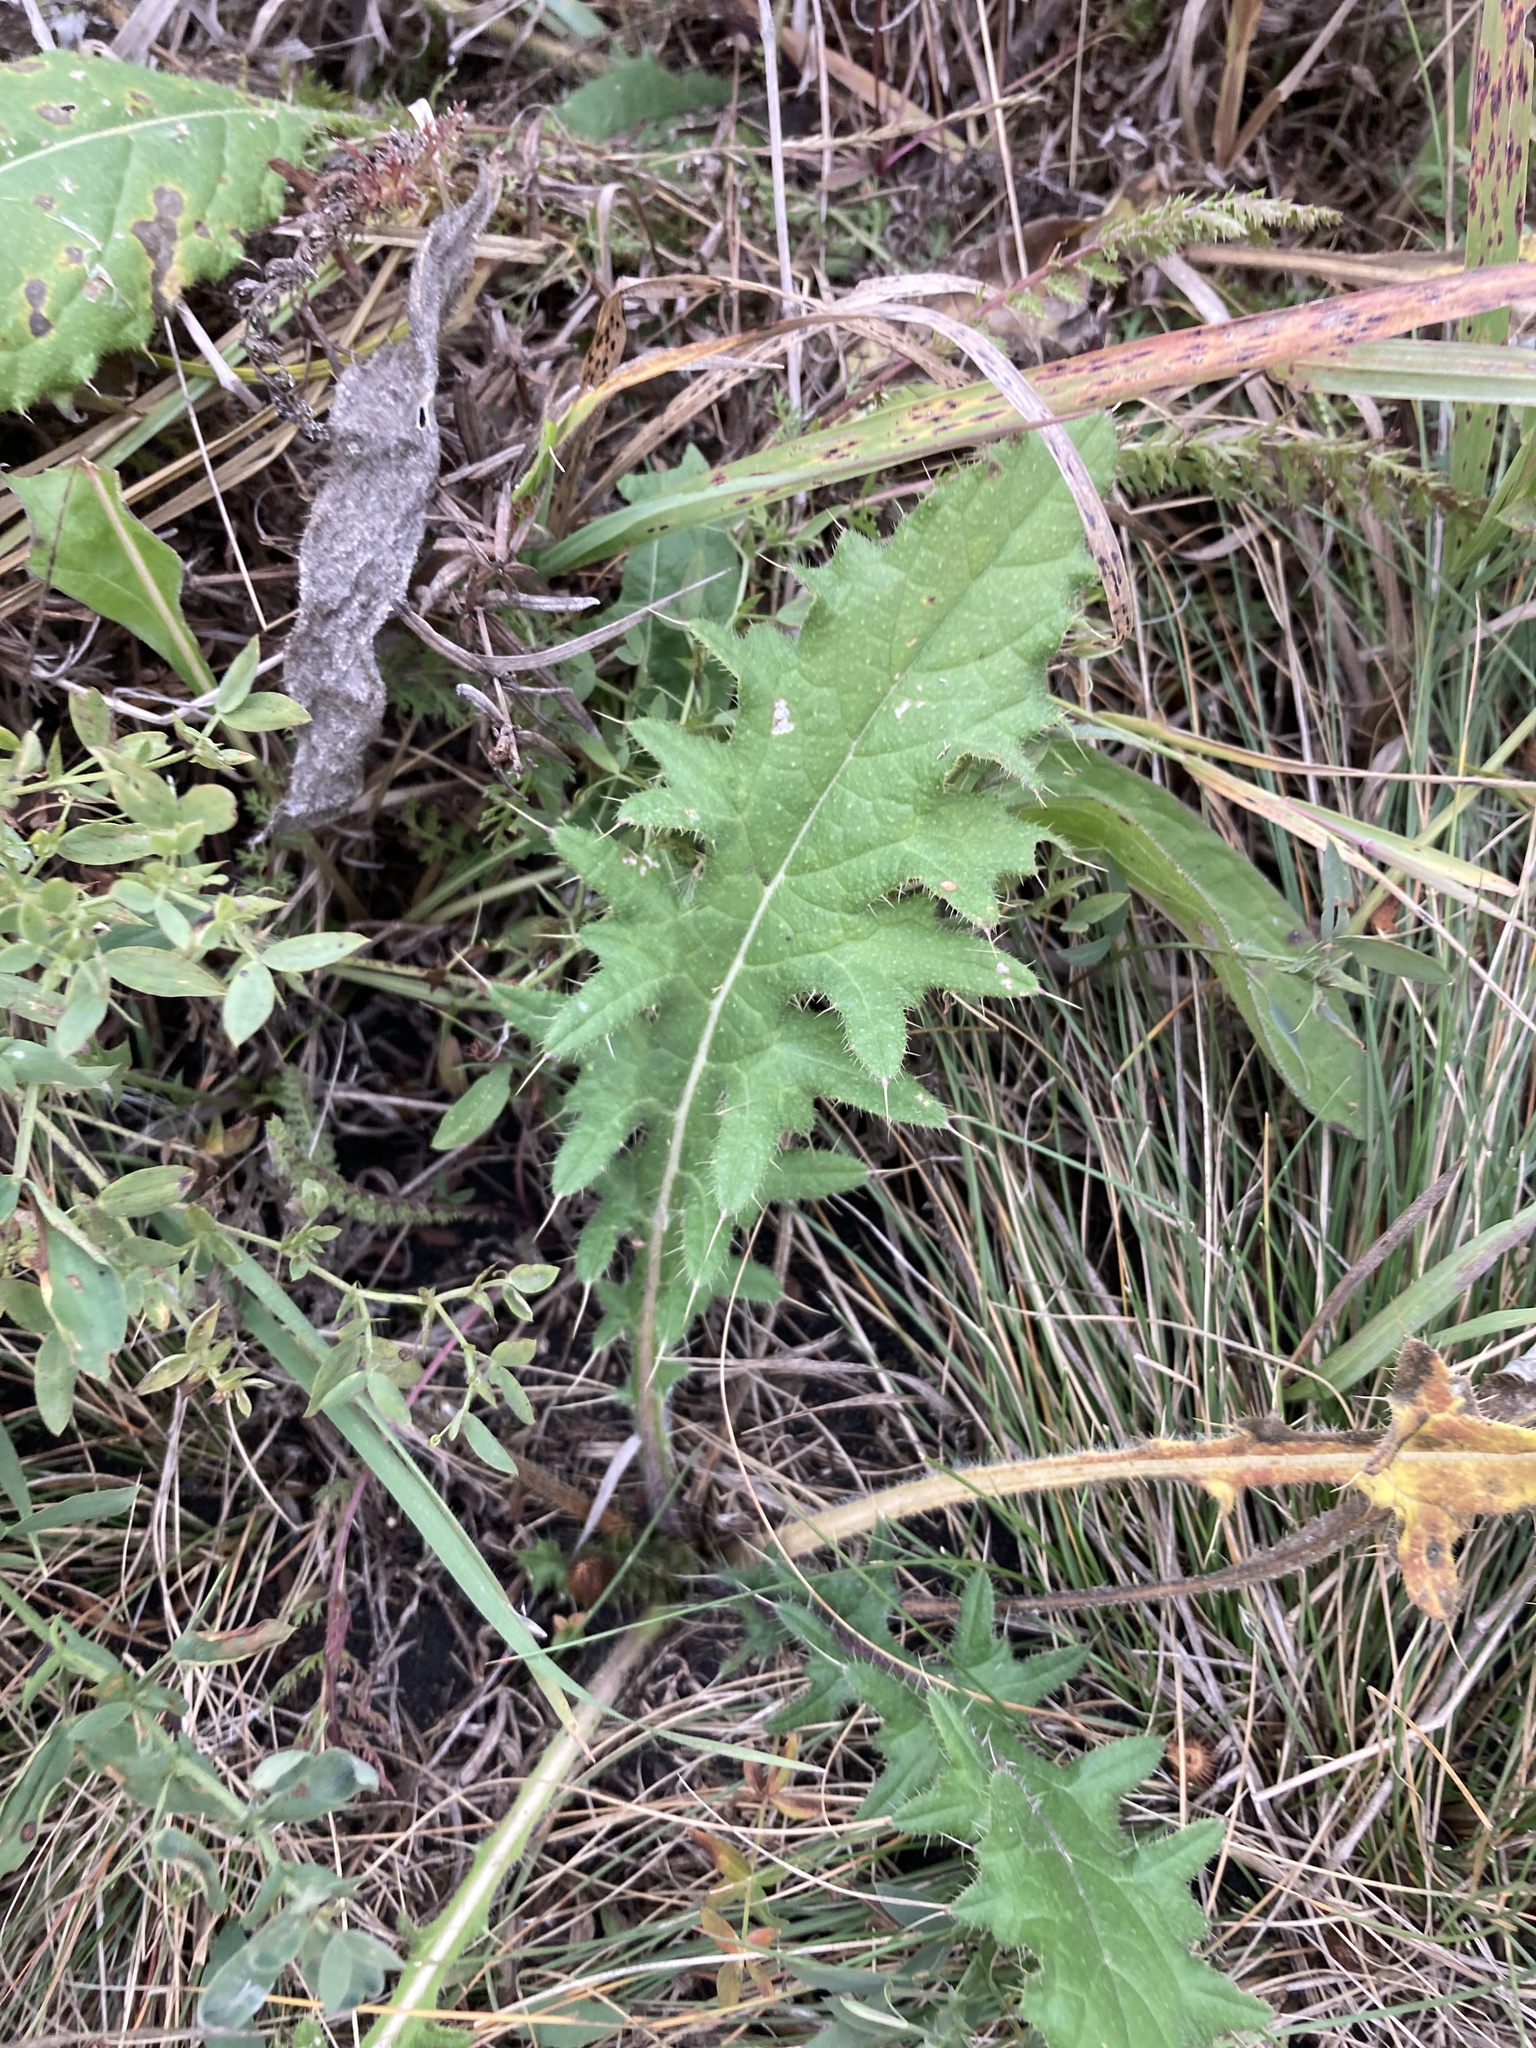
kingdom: Plantae
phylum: Tracheophyta
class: Magnoliopsida
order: Asterales
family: Asteraceae
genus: Cirsium
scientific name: Cirsium vulgare
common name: Bull thistle
